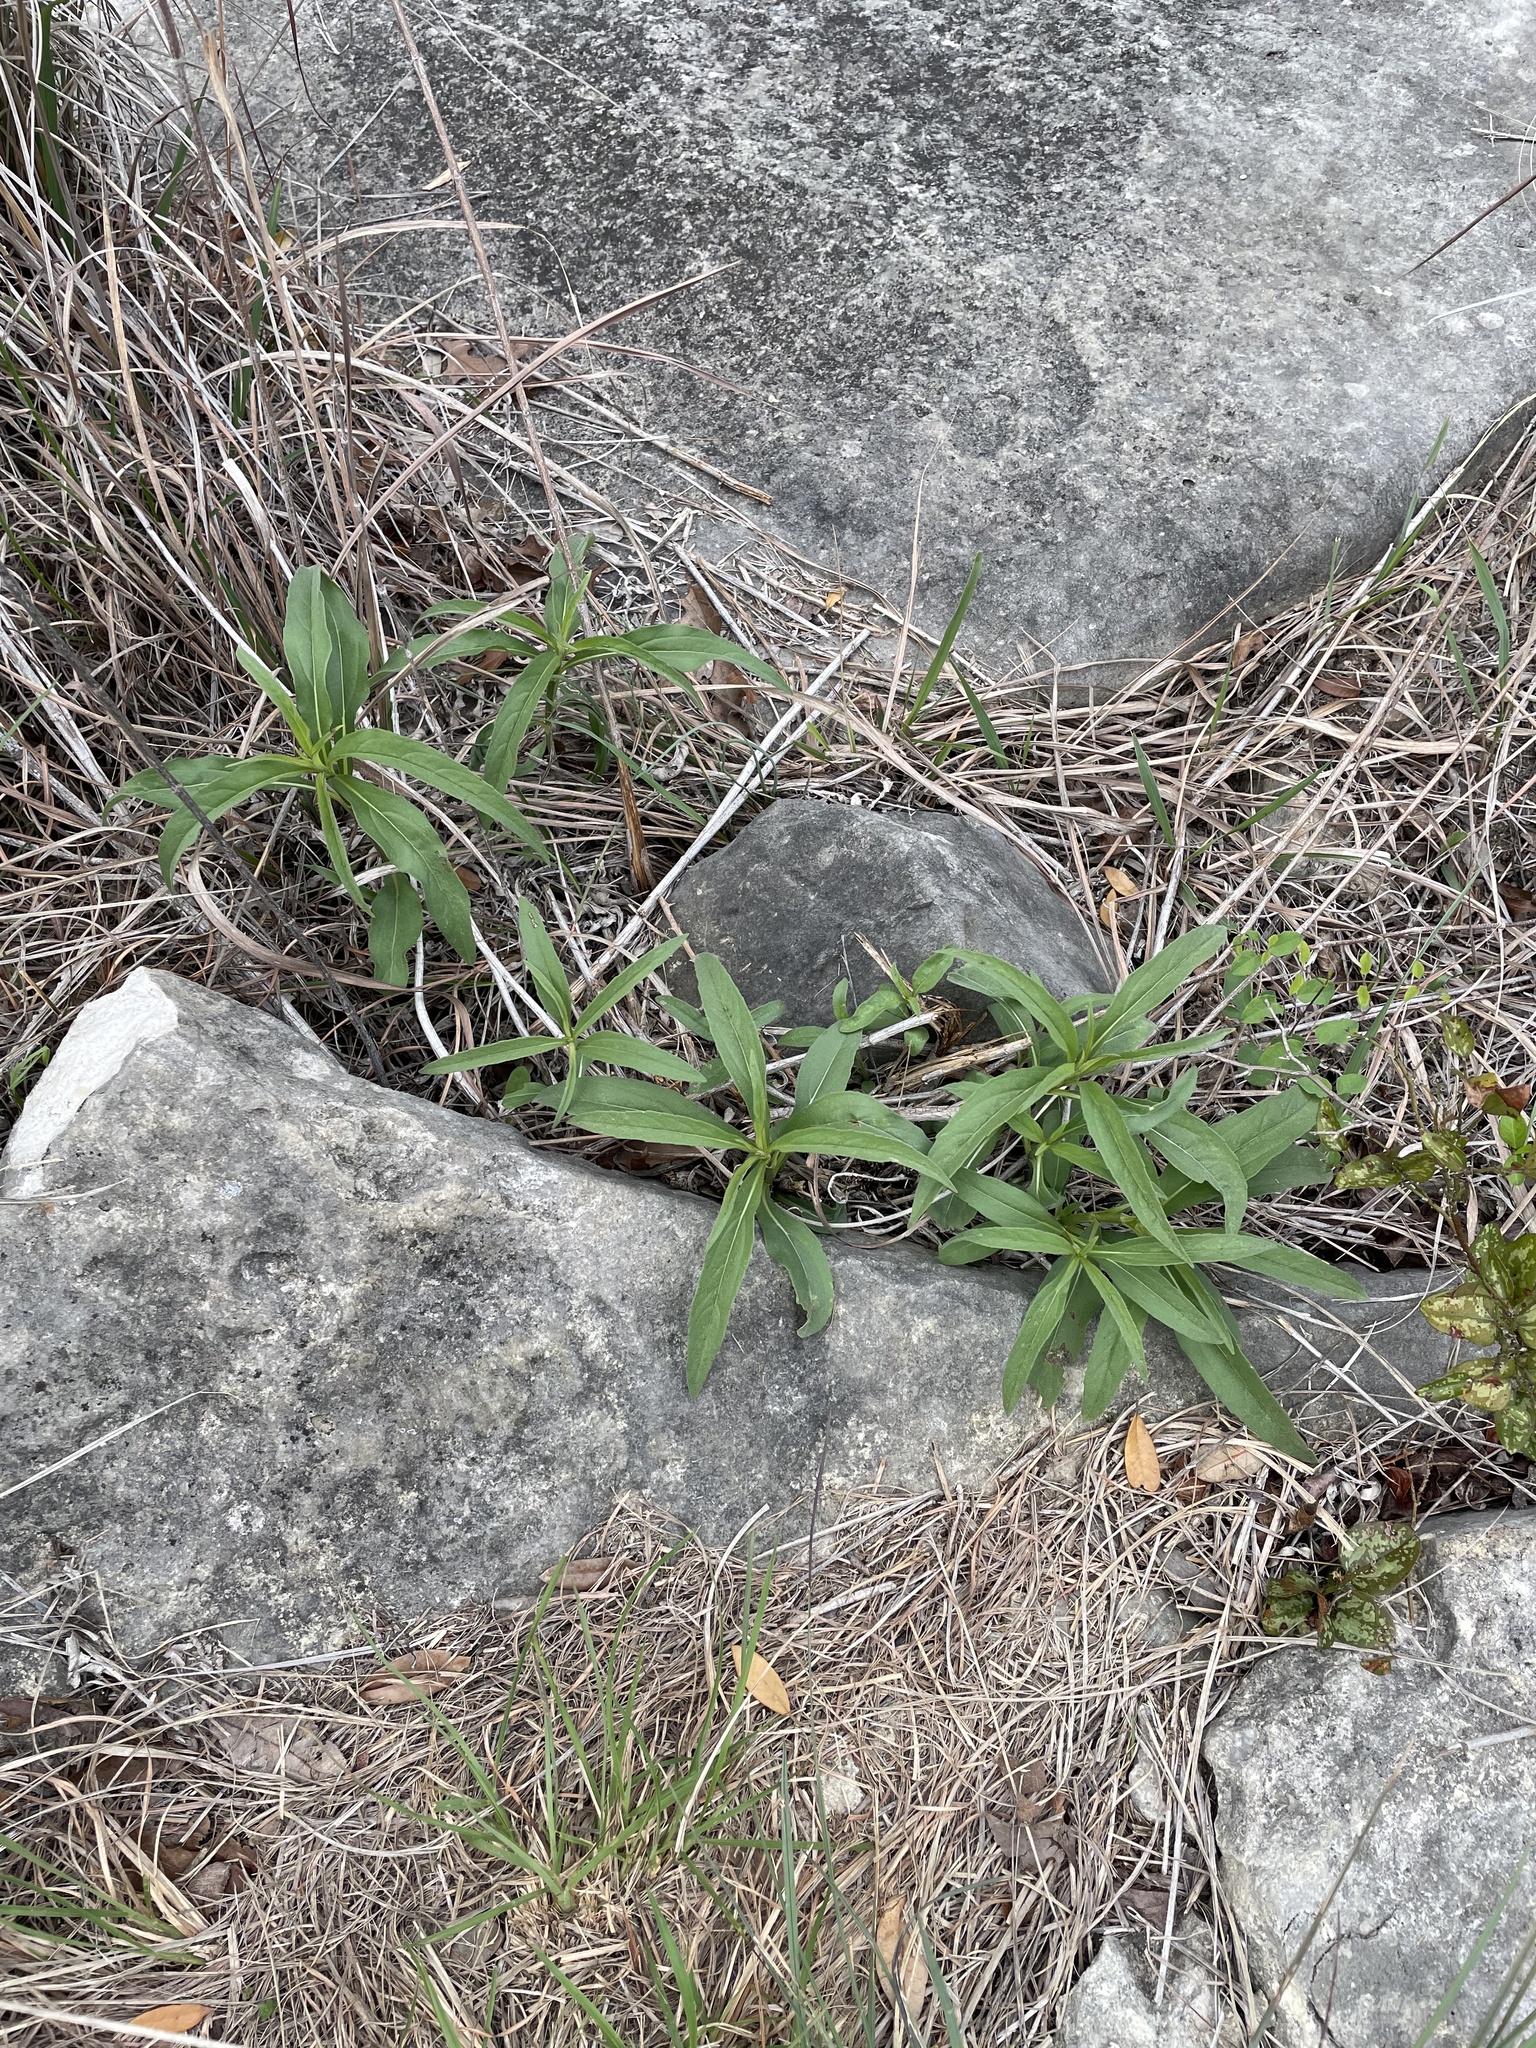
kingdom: Plantae
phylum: Tracheophyta
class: Magnoliopsida
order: Asterales
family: Asteraceae
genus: Helianthus
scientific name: Helianthus maximiliani
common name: Maximilian's sunflower
